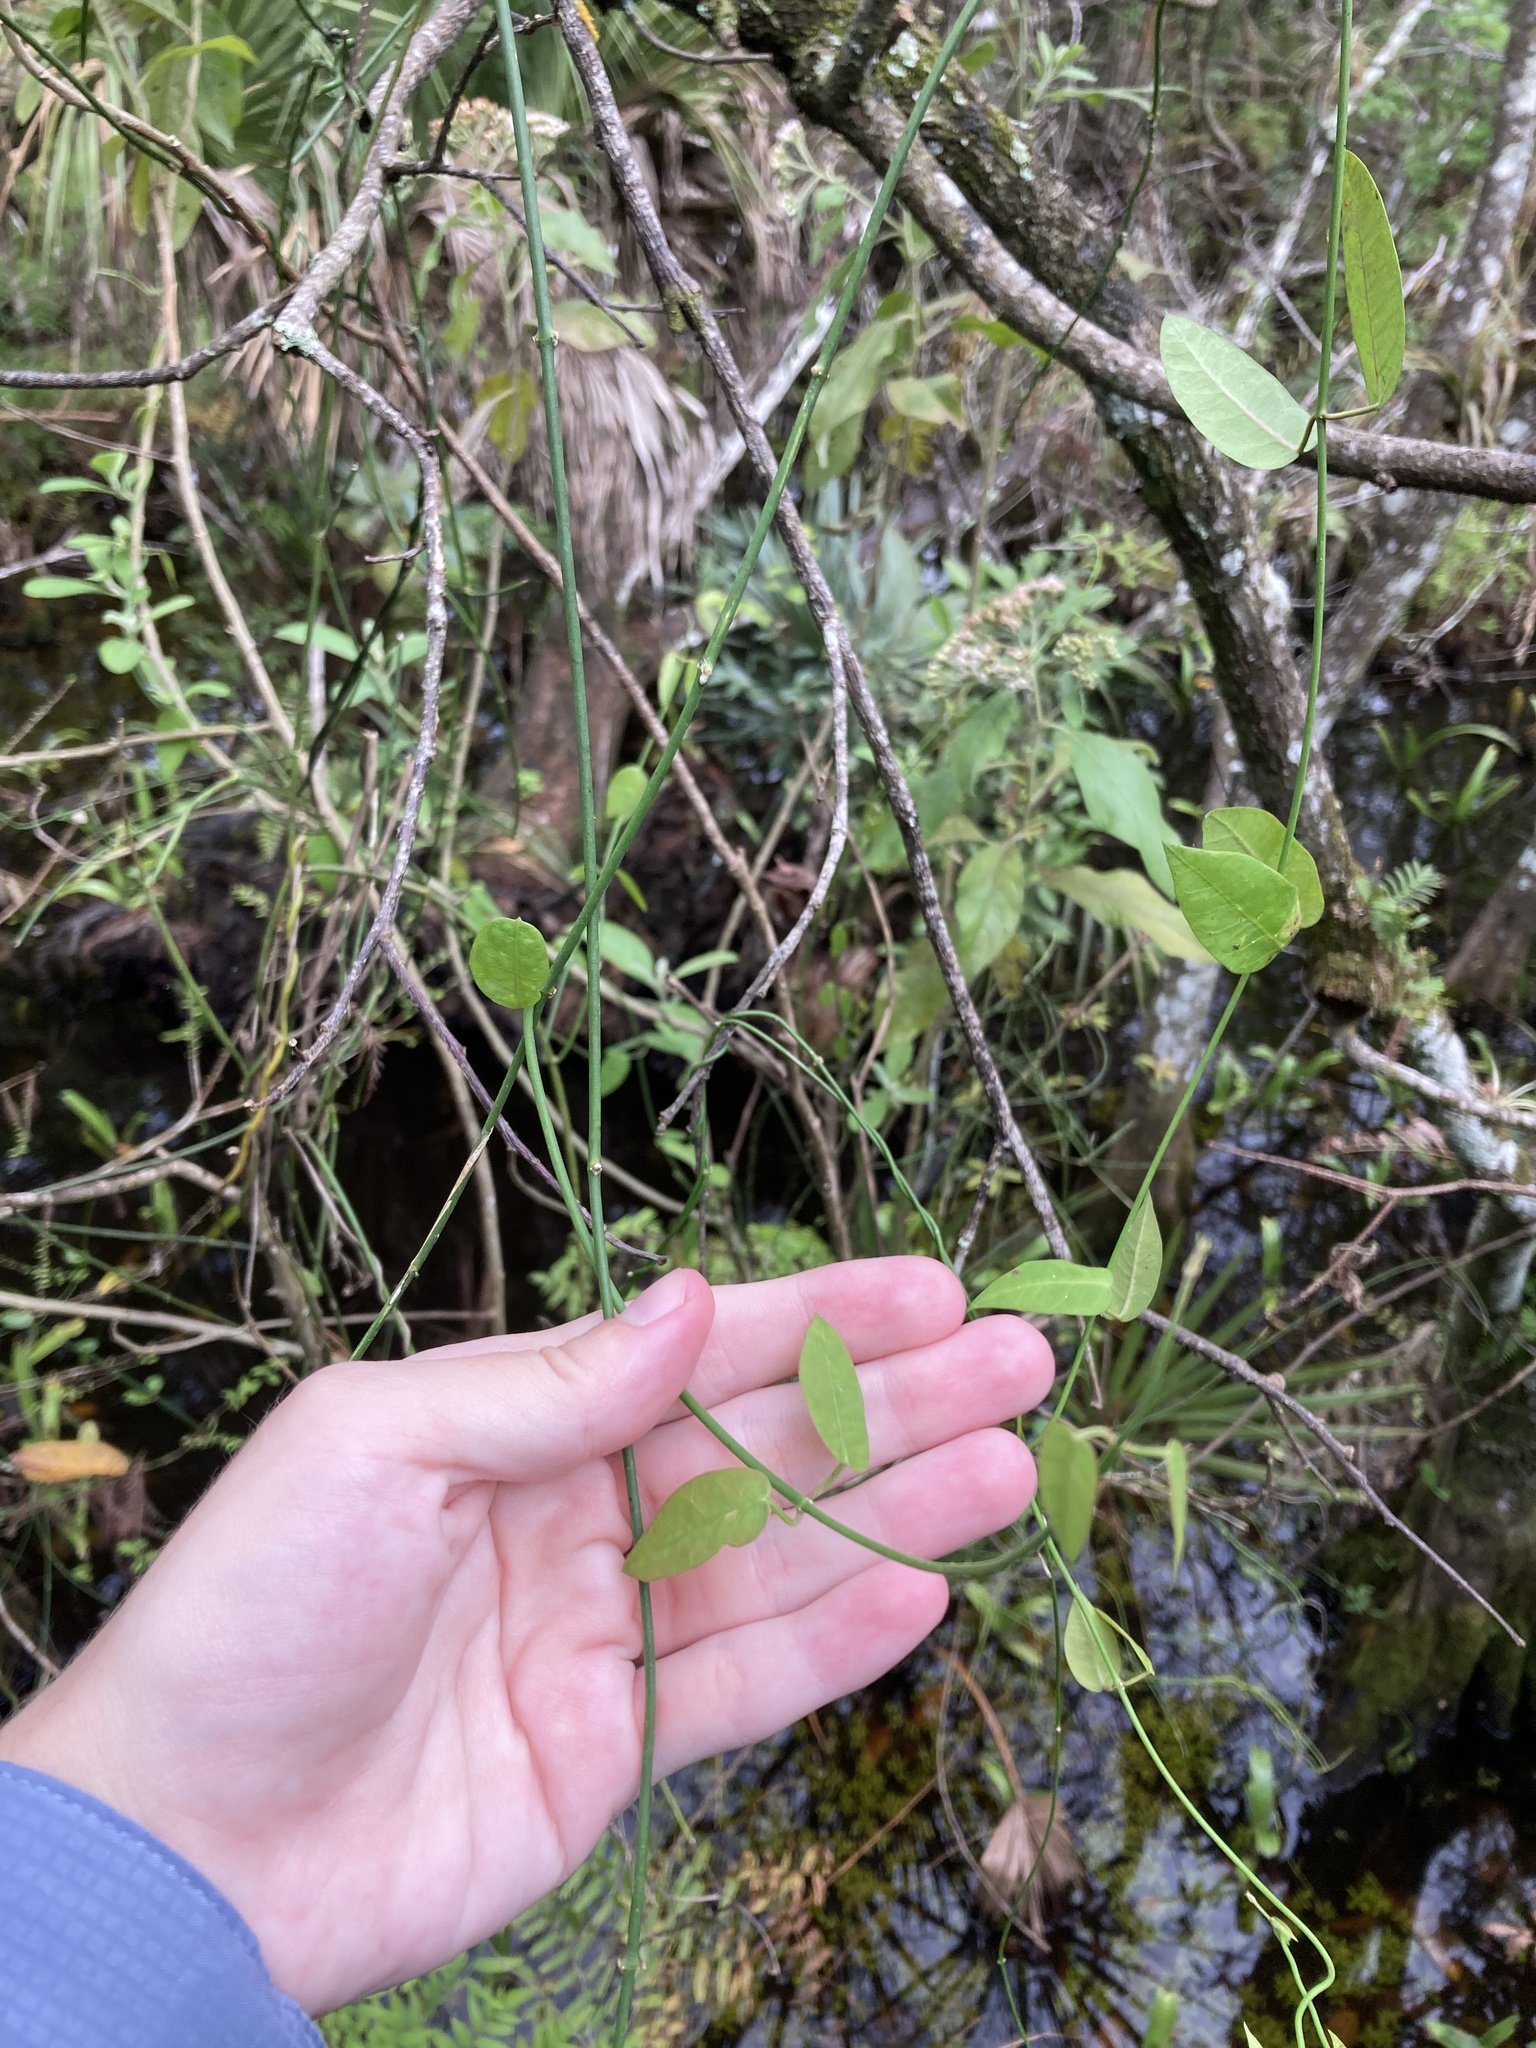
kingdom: Plantae
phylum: Tracheophyta
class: Magnoliopsida
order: Gentianales
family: Apocynaceae
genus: Funastrum
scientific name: Funastrum clausum
